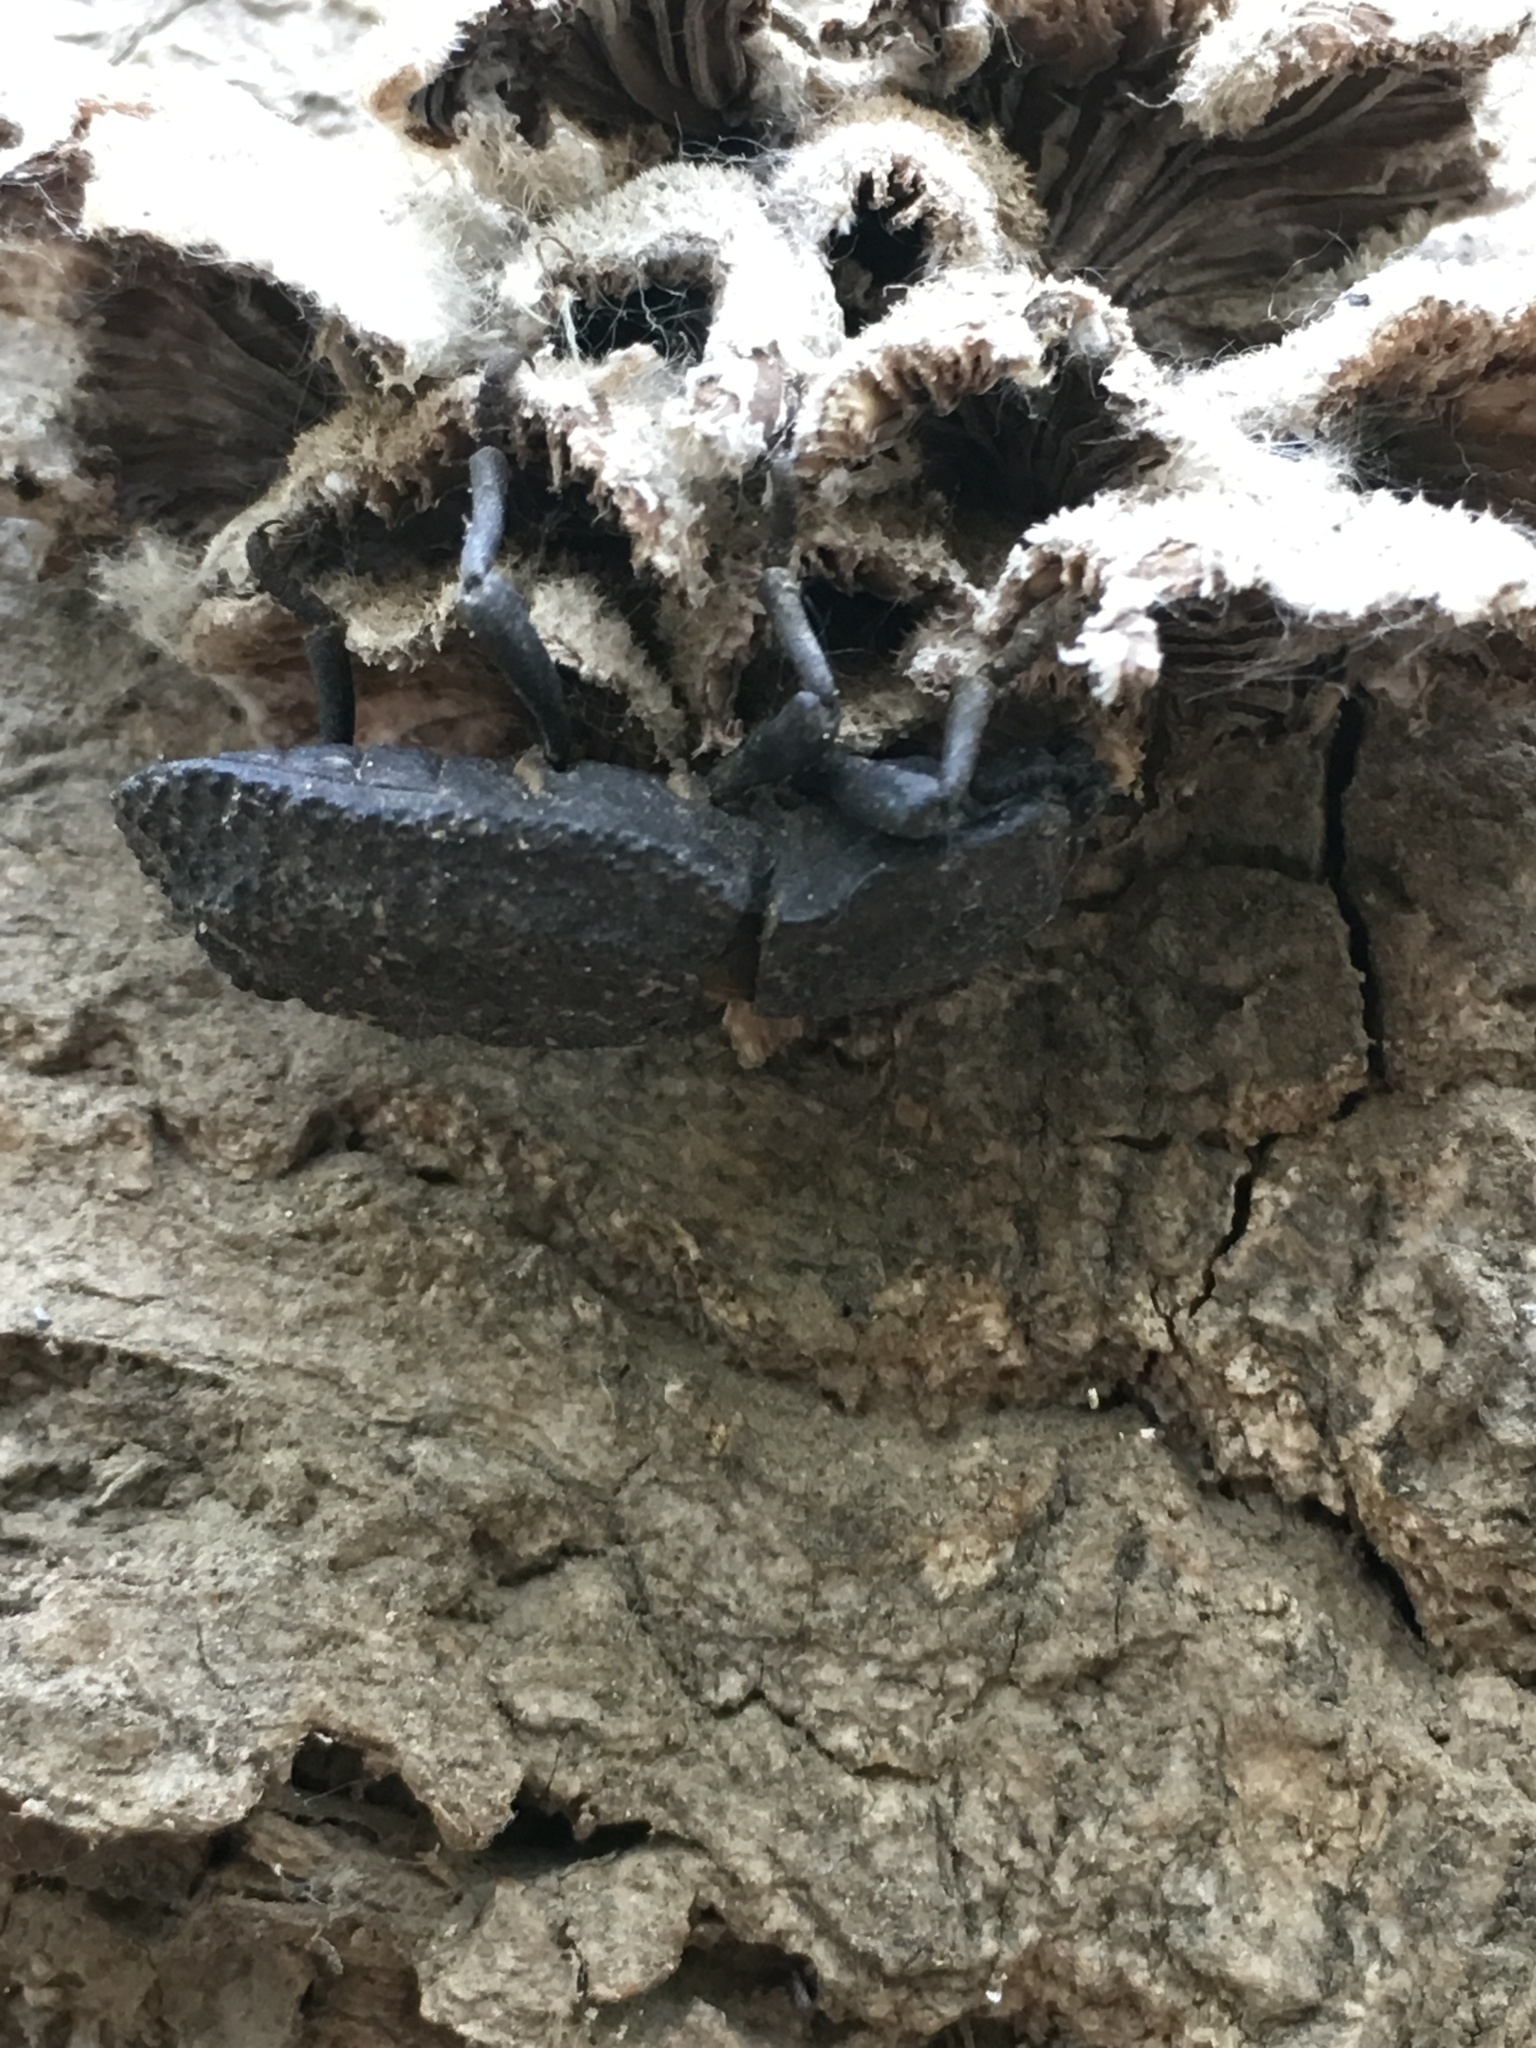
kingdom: Animalia
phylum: Arthropoda
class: Insecta
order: Coleoptera
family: Zopheridae
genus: Phloeodes
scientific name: Phloeodes diabolicus
